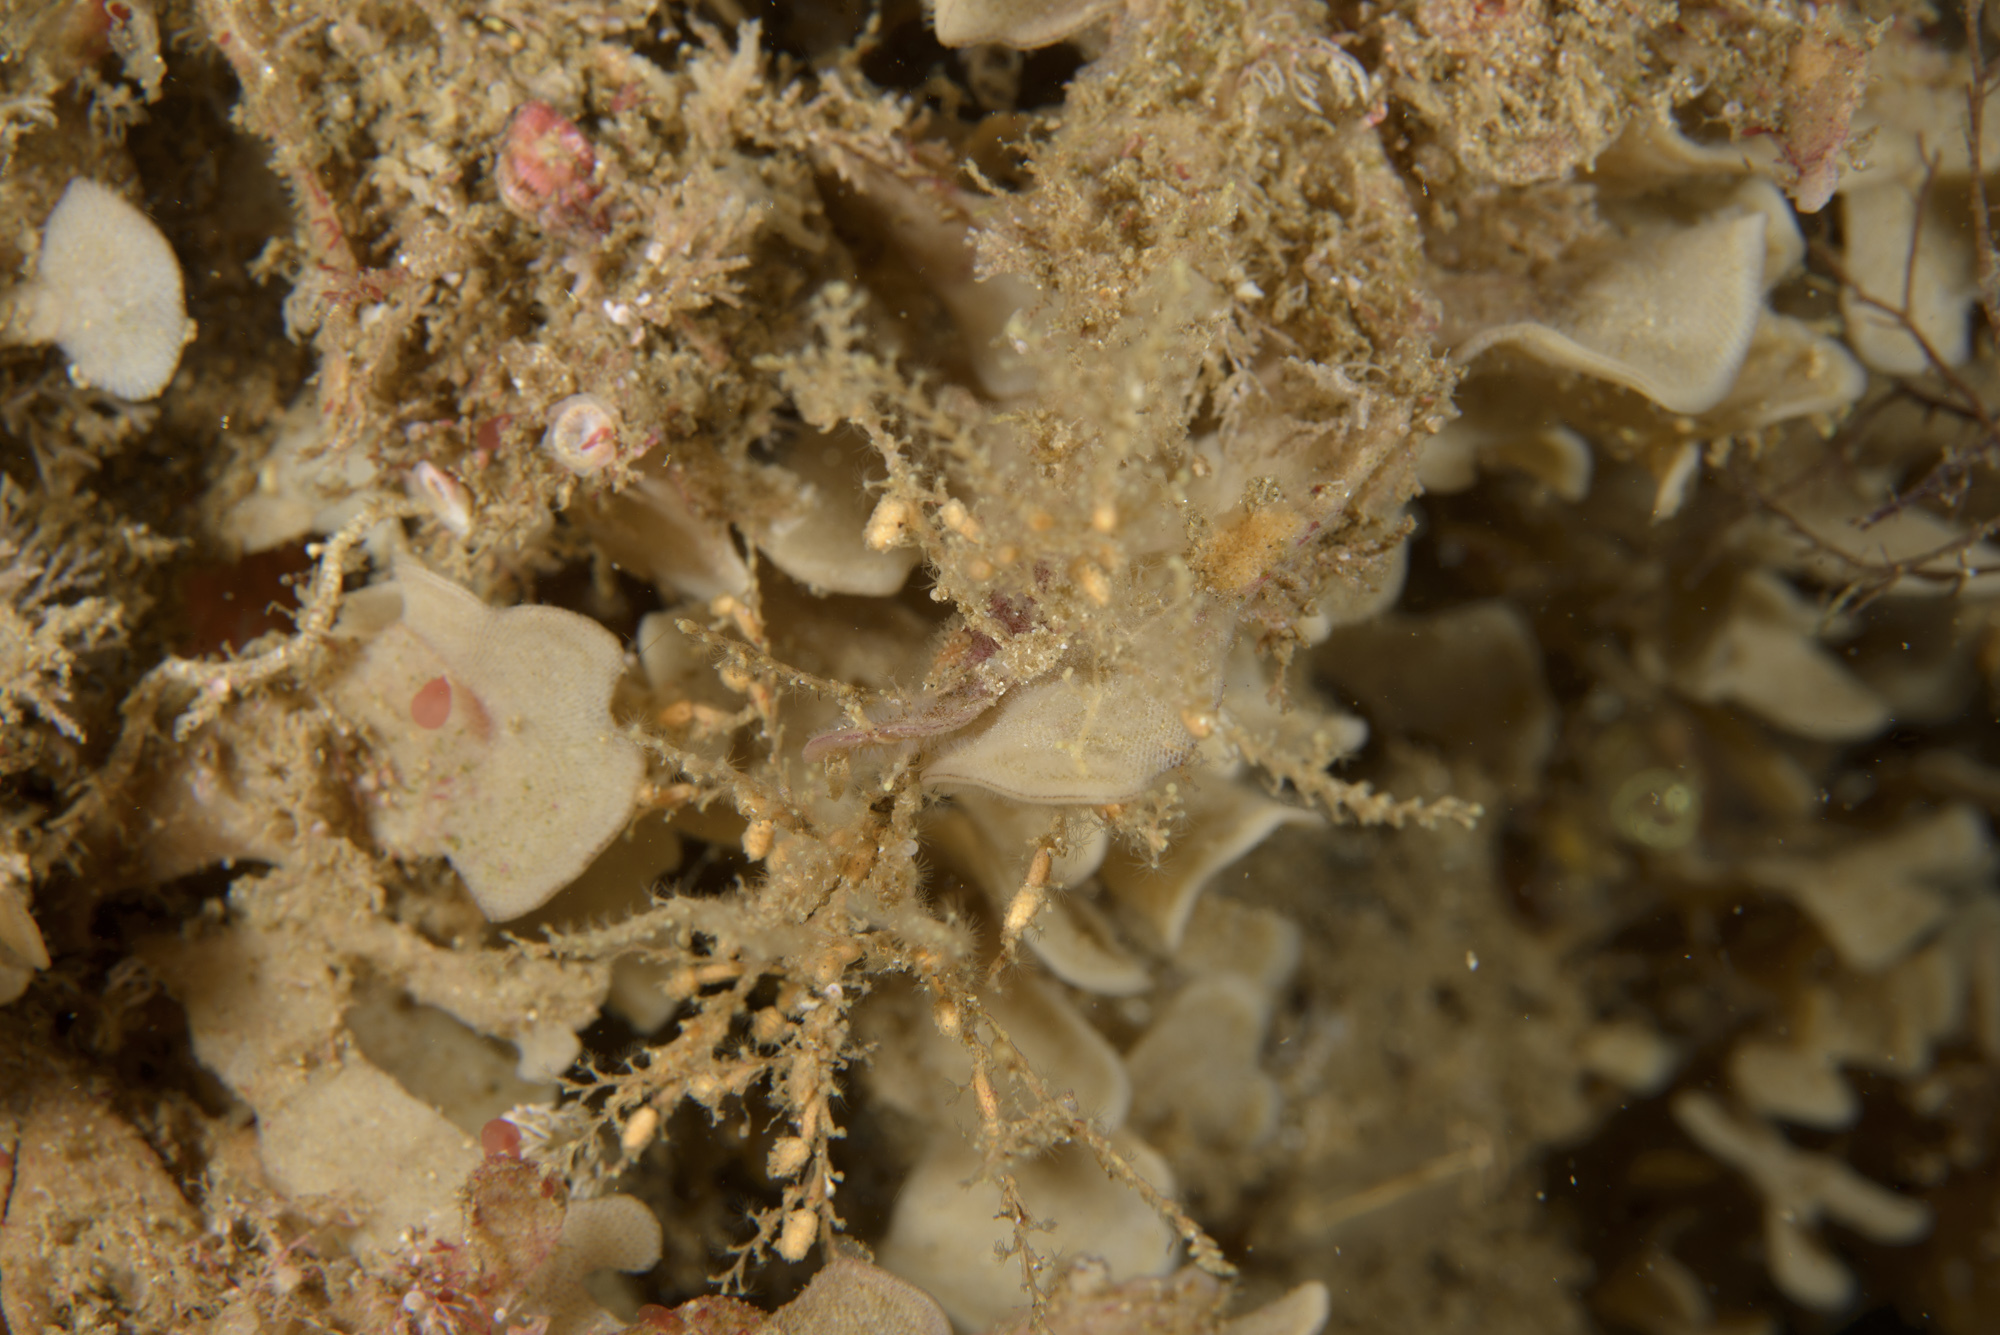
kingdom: Animalia
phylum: Cnidaria
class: Hydrozoa
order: Leptothecata
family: Sertularellidae
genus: Sertularella
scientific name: Sertularella fusiformis
